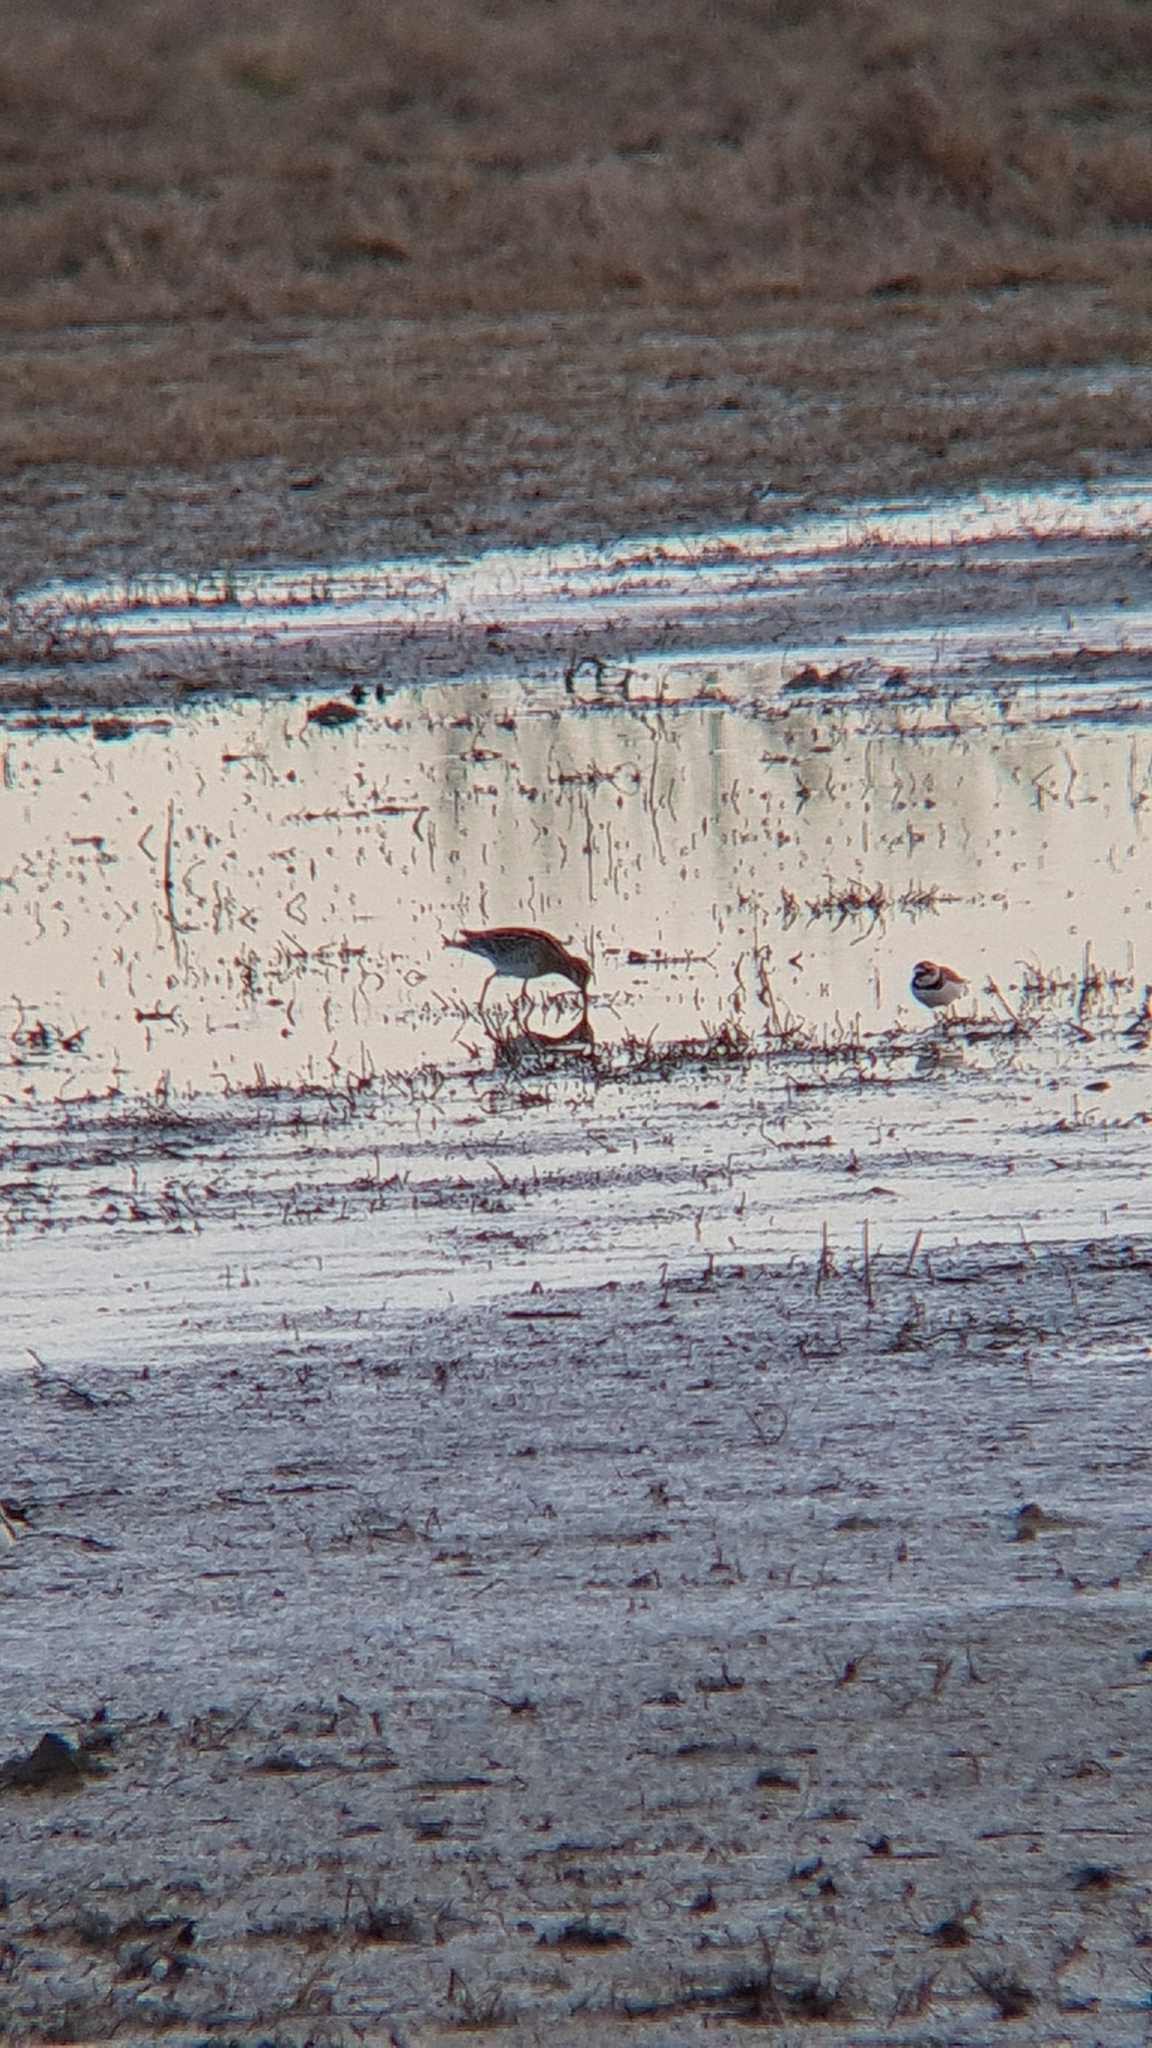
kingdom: Animalia
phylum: Chordata
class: Aves
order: Charadriiformes
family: Scolopacidae
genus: Gallinago
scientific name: Gallinago gallinago
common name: Common snipe
